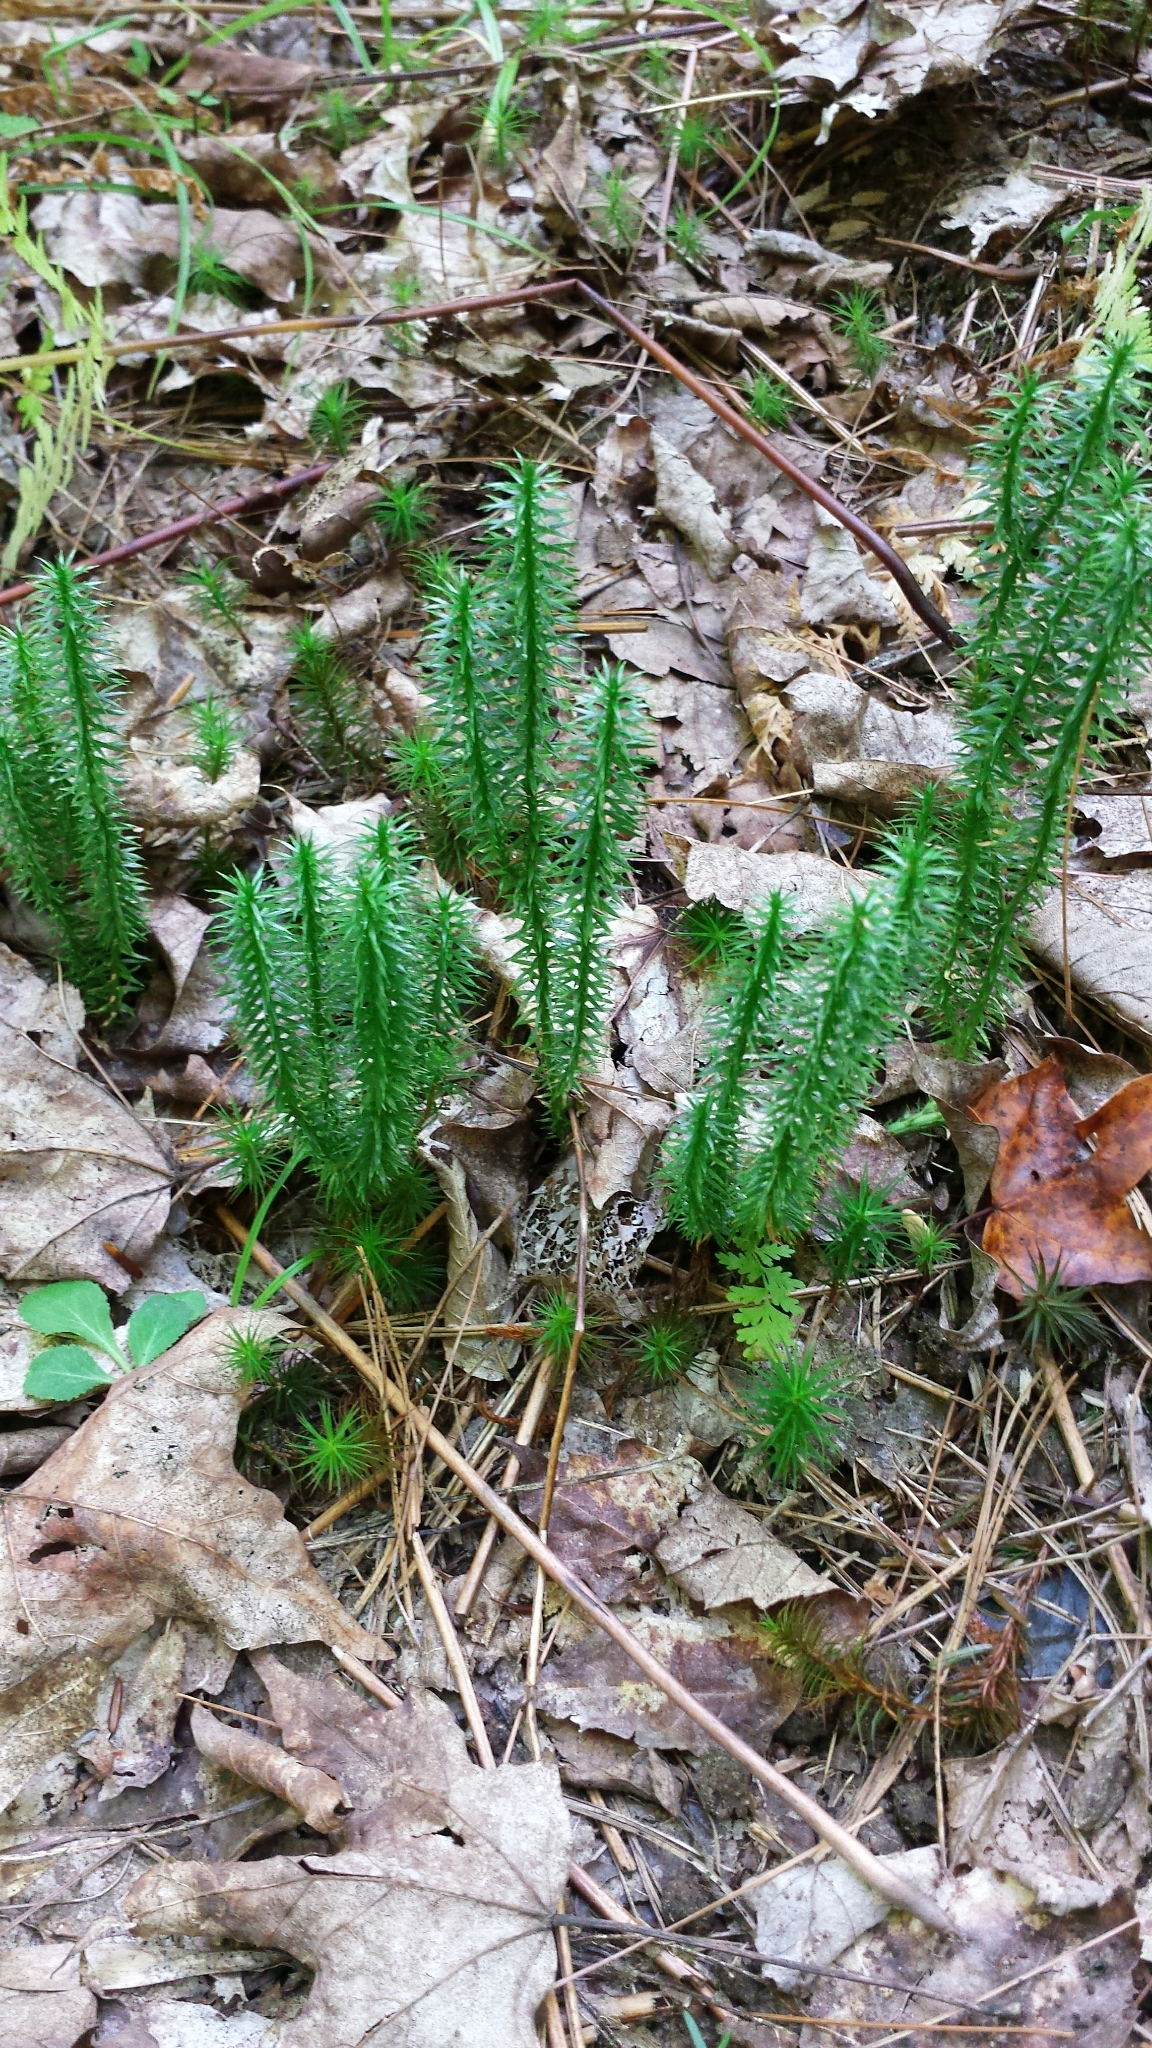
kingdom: Plantae
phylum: Tracheophyta
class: Lycopodiopsida
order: Lycopodiales
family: Lycopodiaceae
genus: Spinulum
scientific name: Spinulum annotinum
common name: Interrupted club-moss
